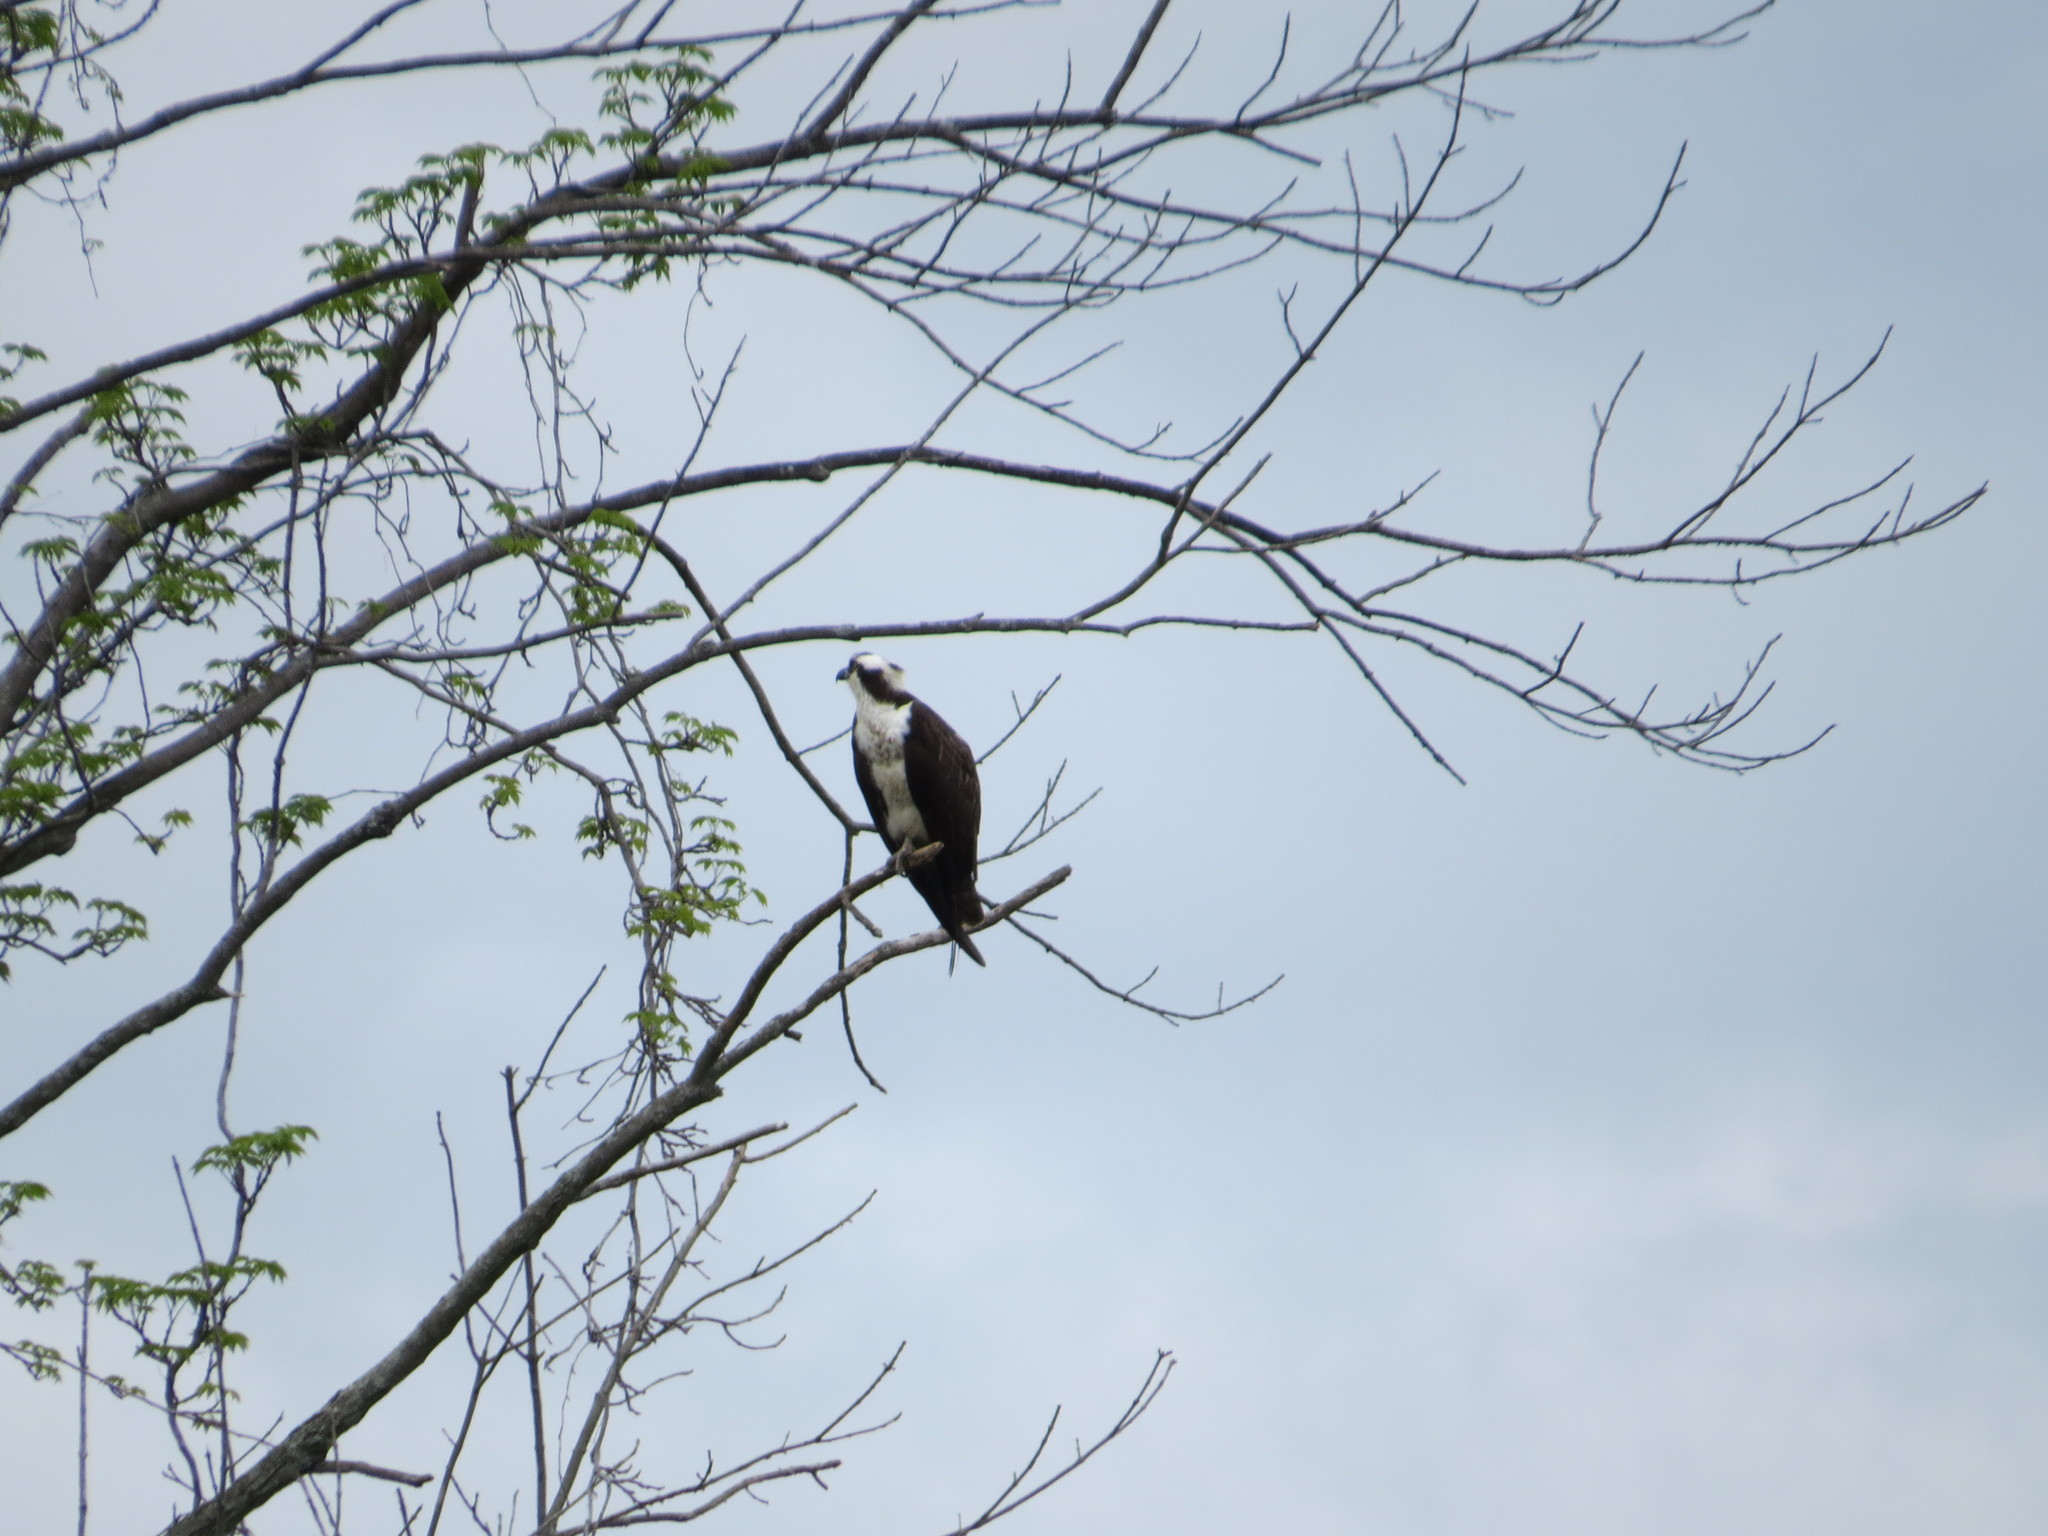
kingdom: Animalia
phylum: Chordata
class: Aves
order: Accipitriformes
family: Pandionidae
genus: Pandion
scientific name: Pandion haliaetus
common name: Osprey
